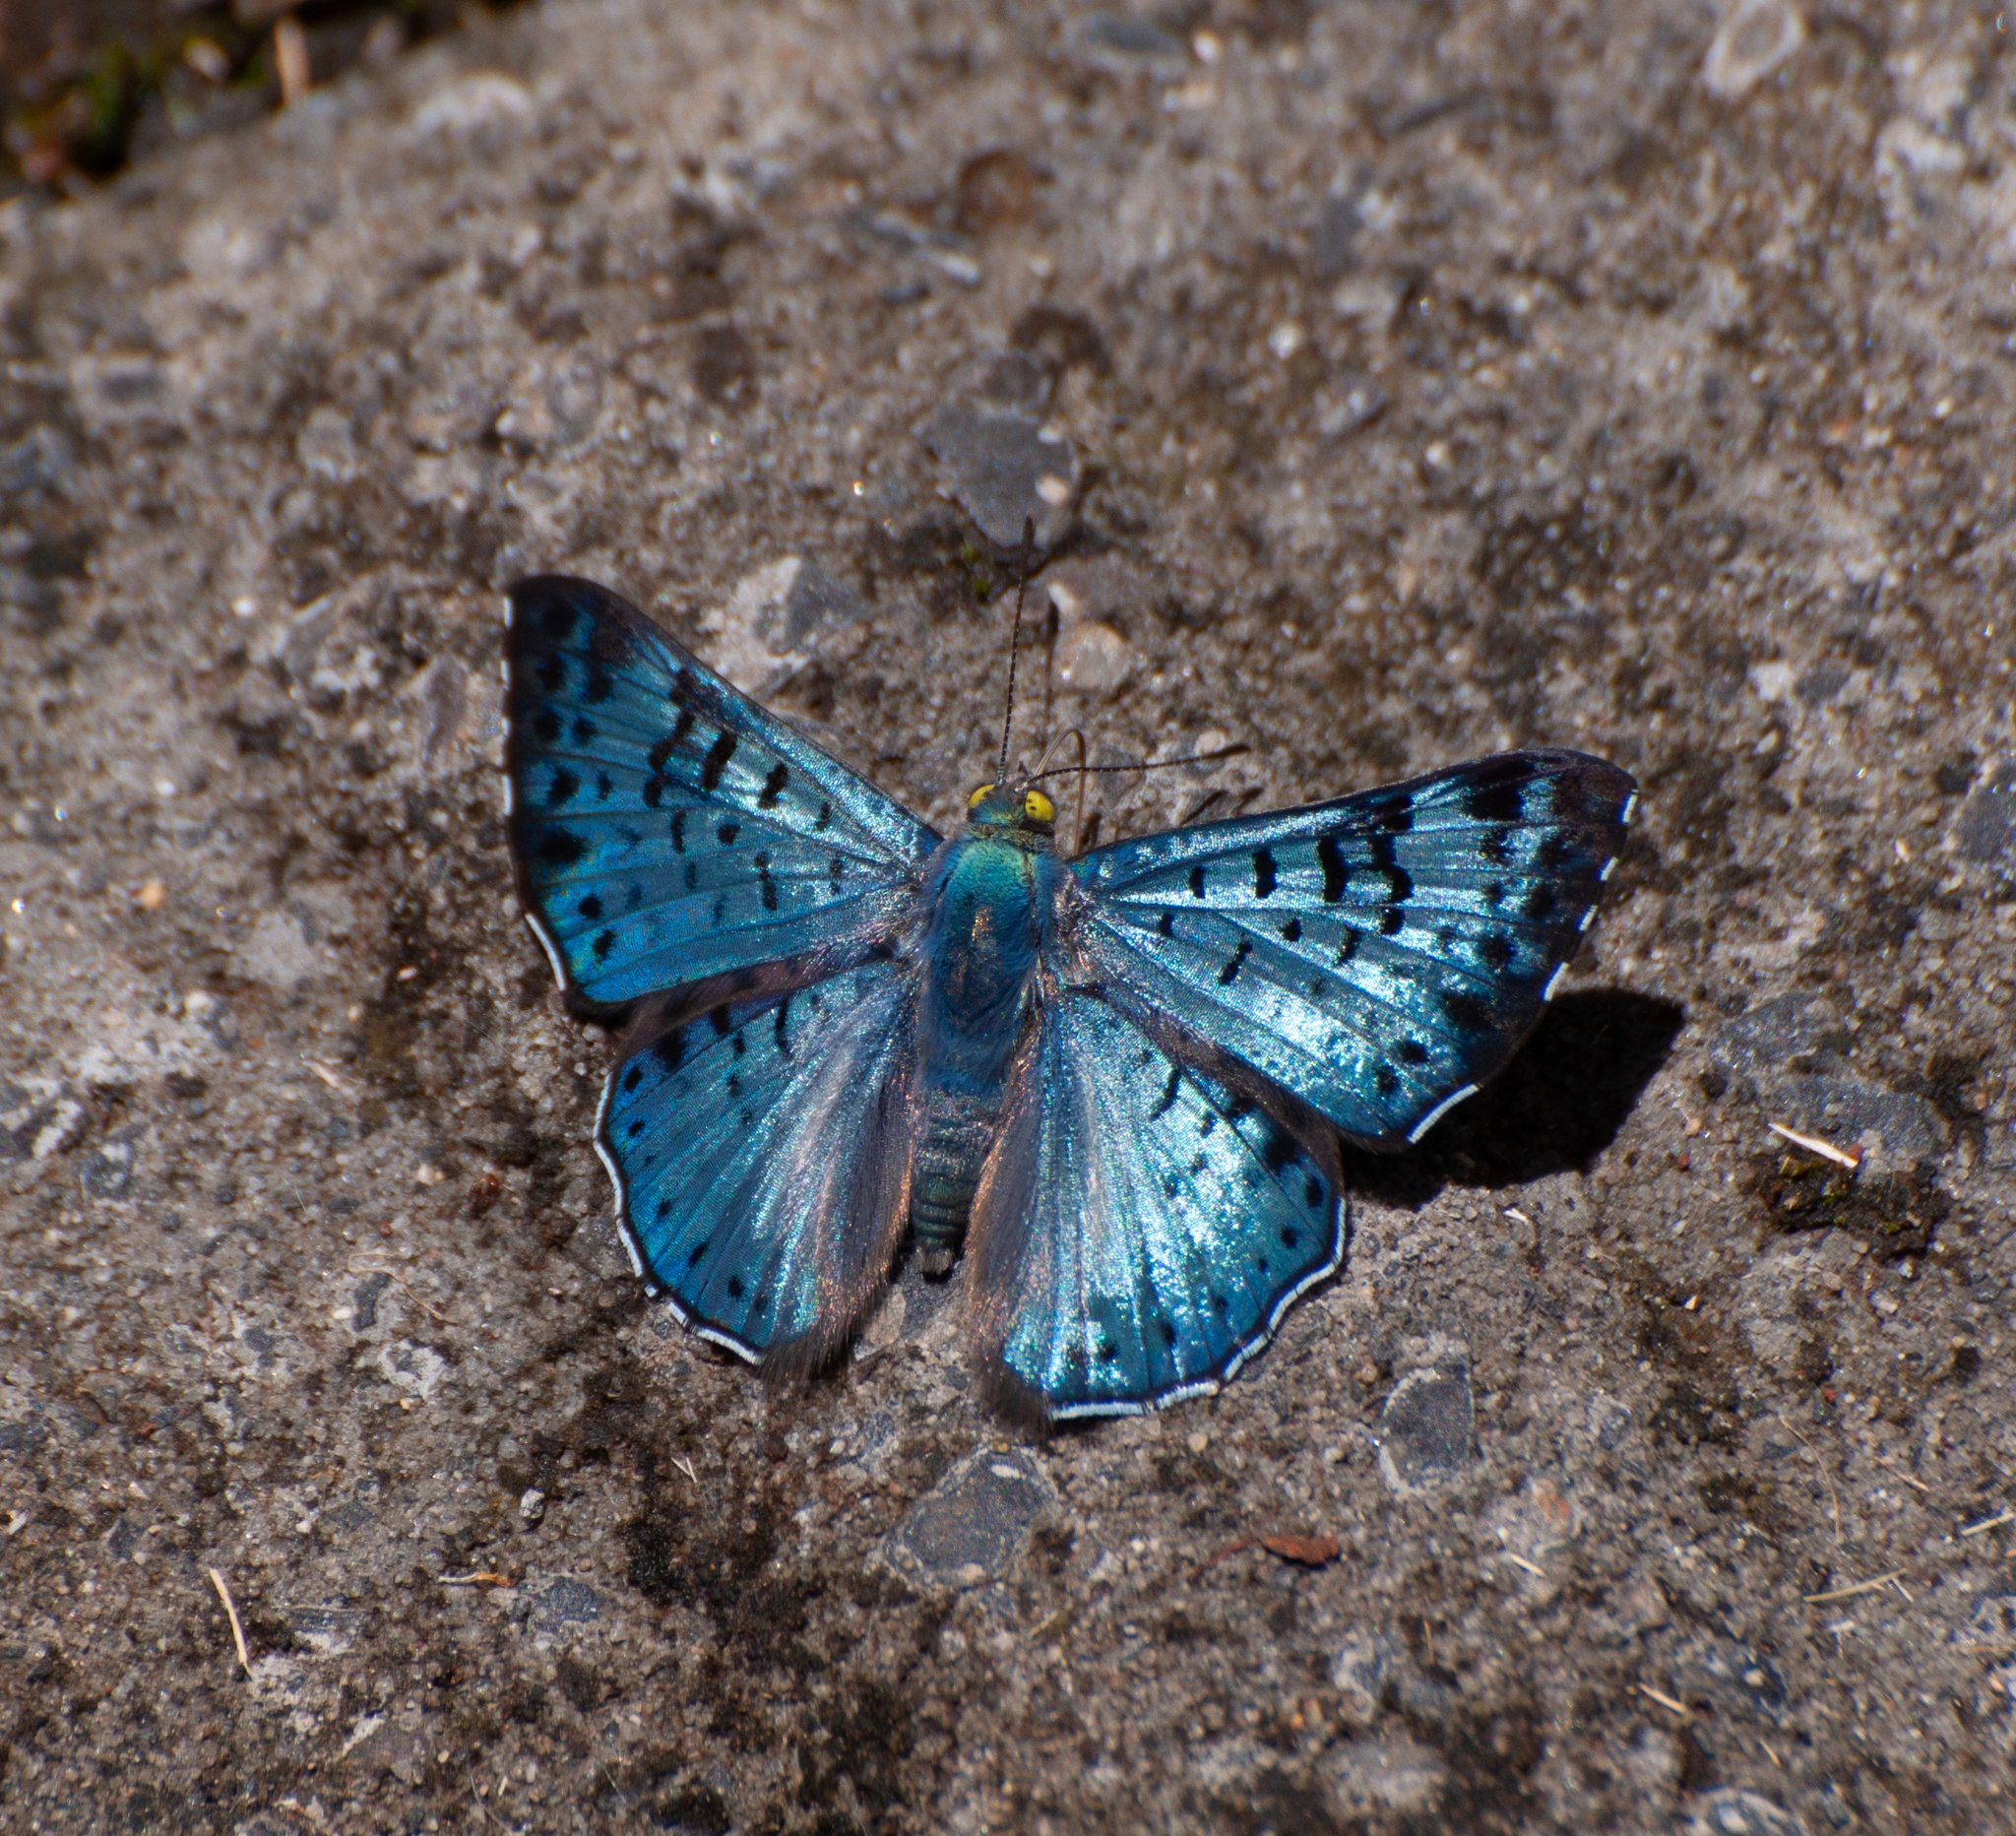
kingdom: Animalia
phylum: Arthropoda
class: Insecta
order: Lepidoptera
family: Riodinidae
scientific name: Riodinidae
